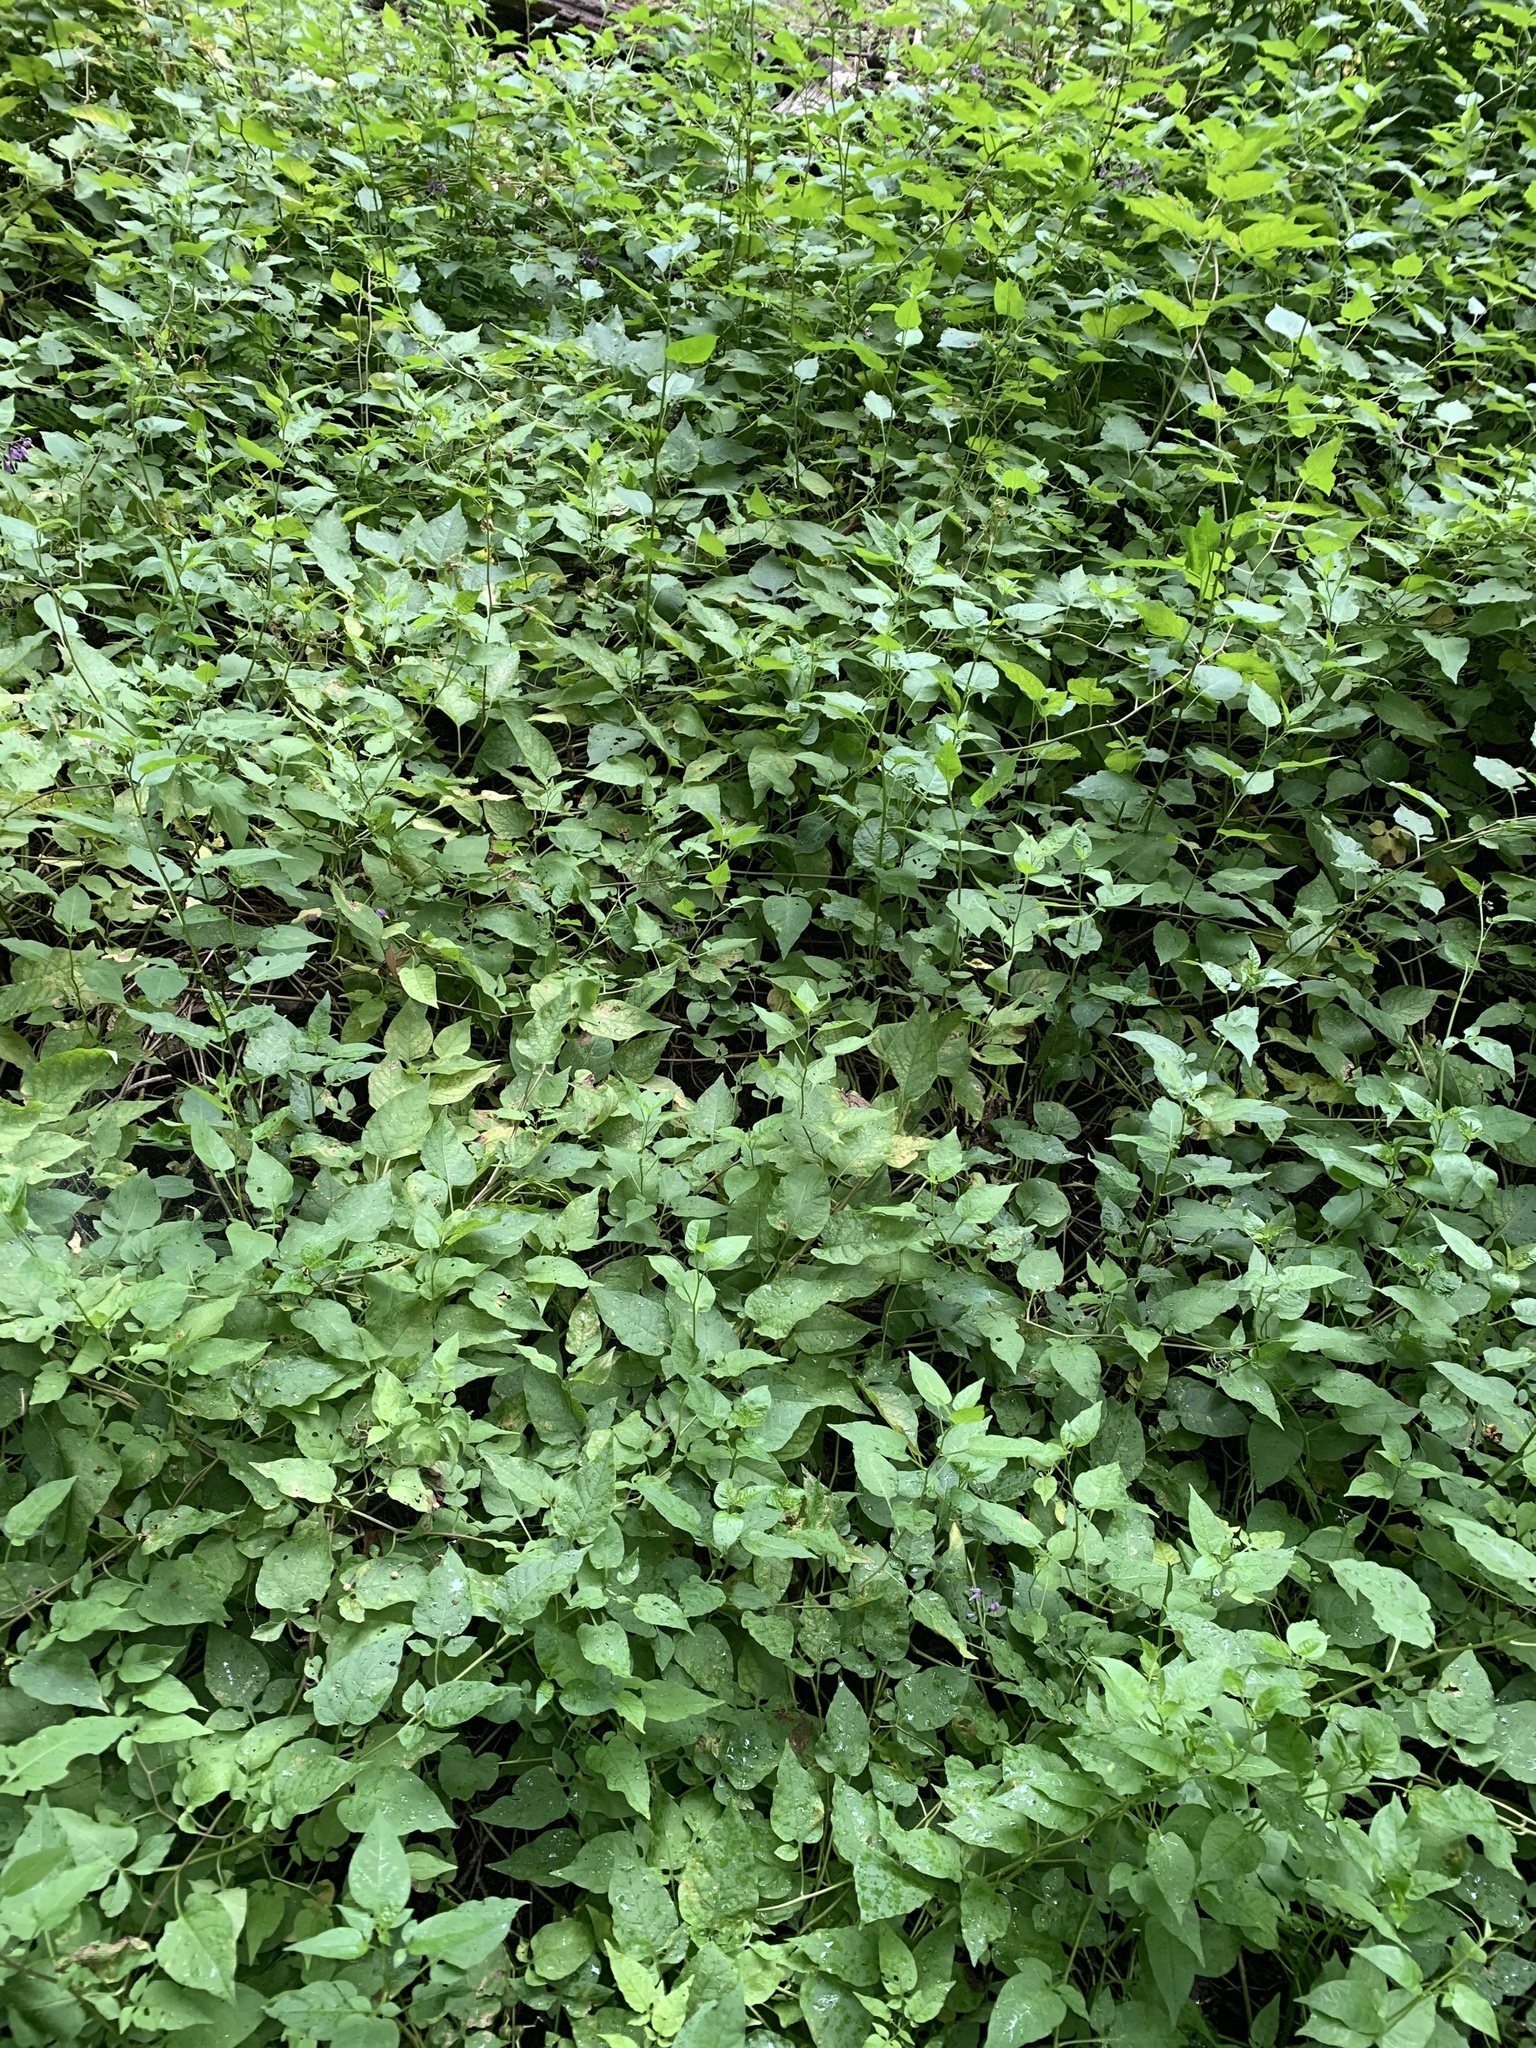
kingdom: Plantae
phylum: Tracheophyta
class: Magnoliopsida
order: Solanales
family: Solanaceae
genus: Solanum
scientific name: Solanum dulcamara
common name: Climbing nightshade
